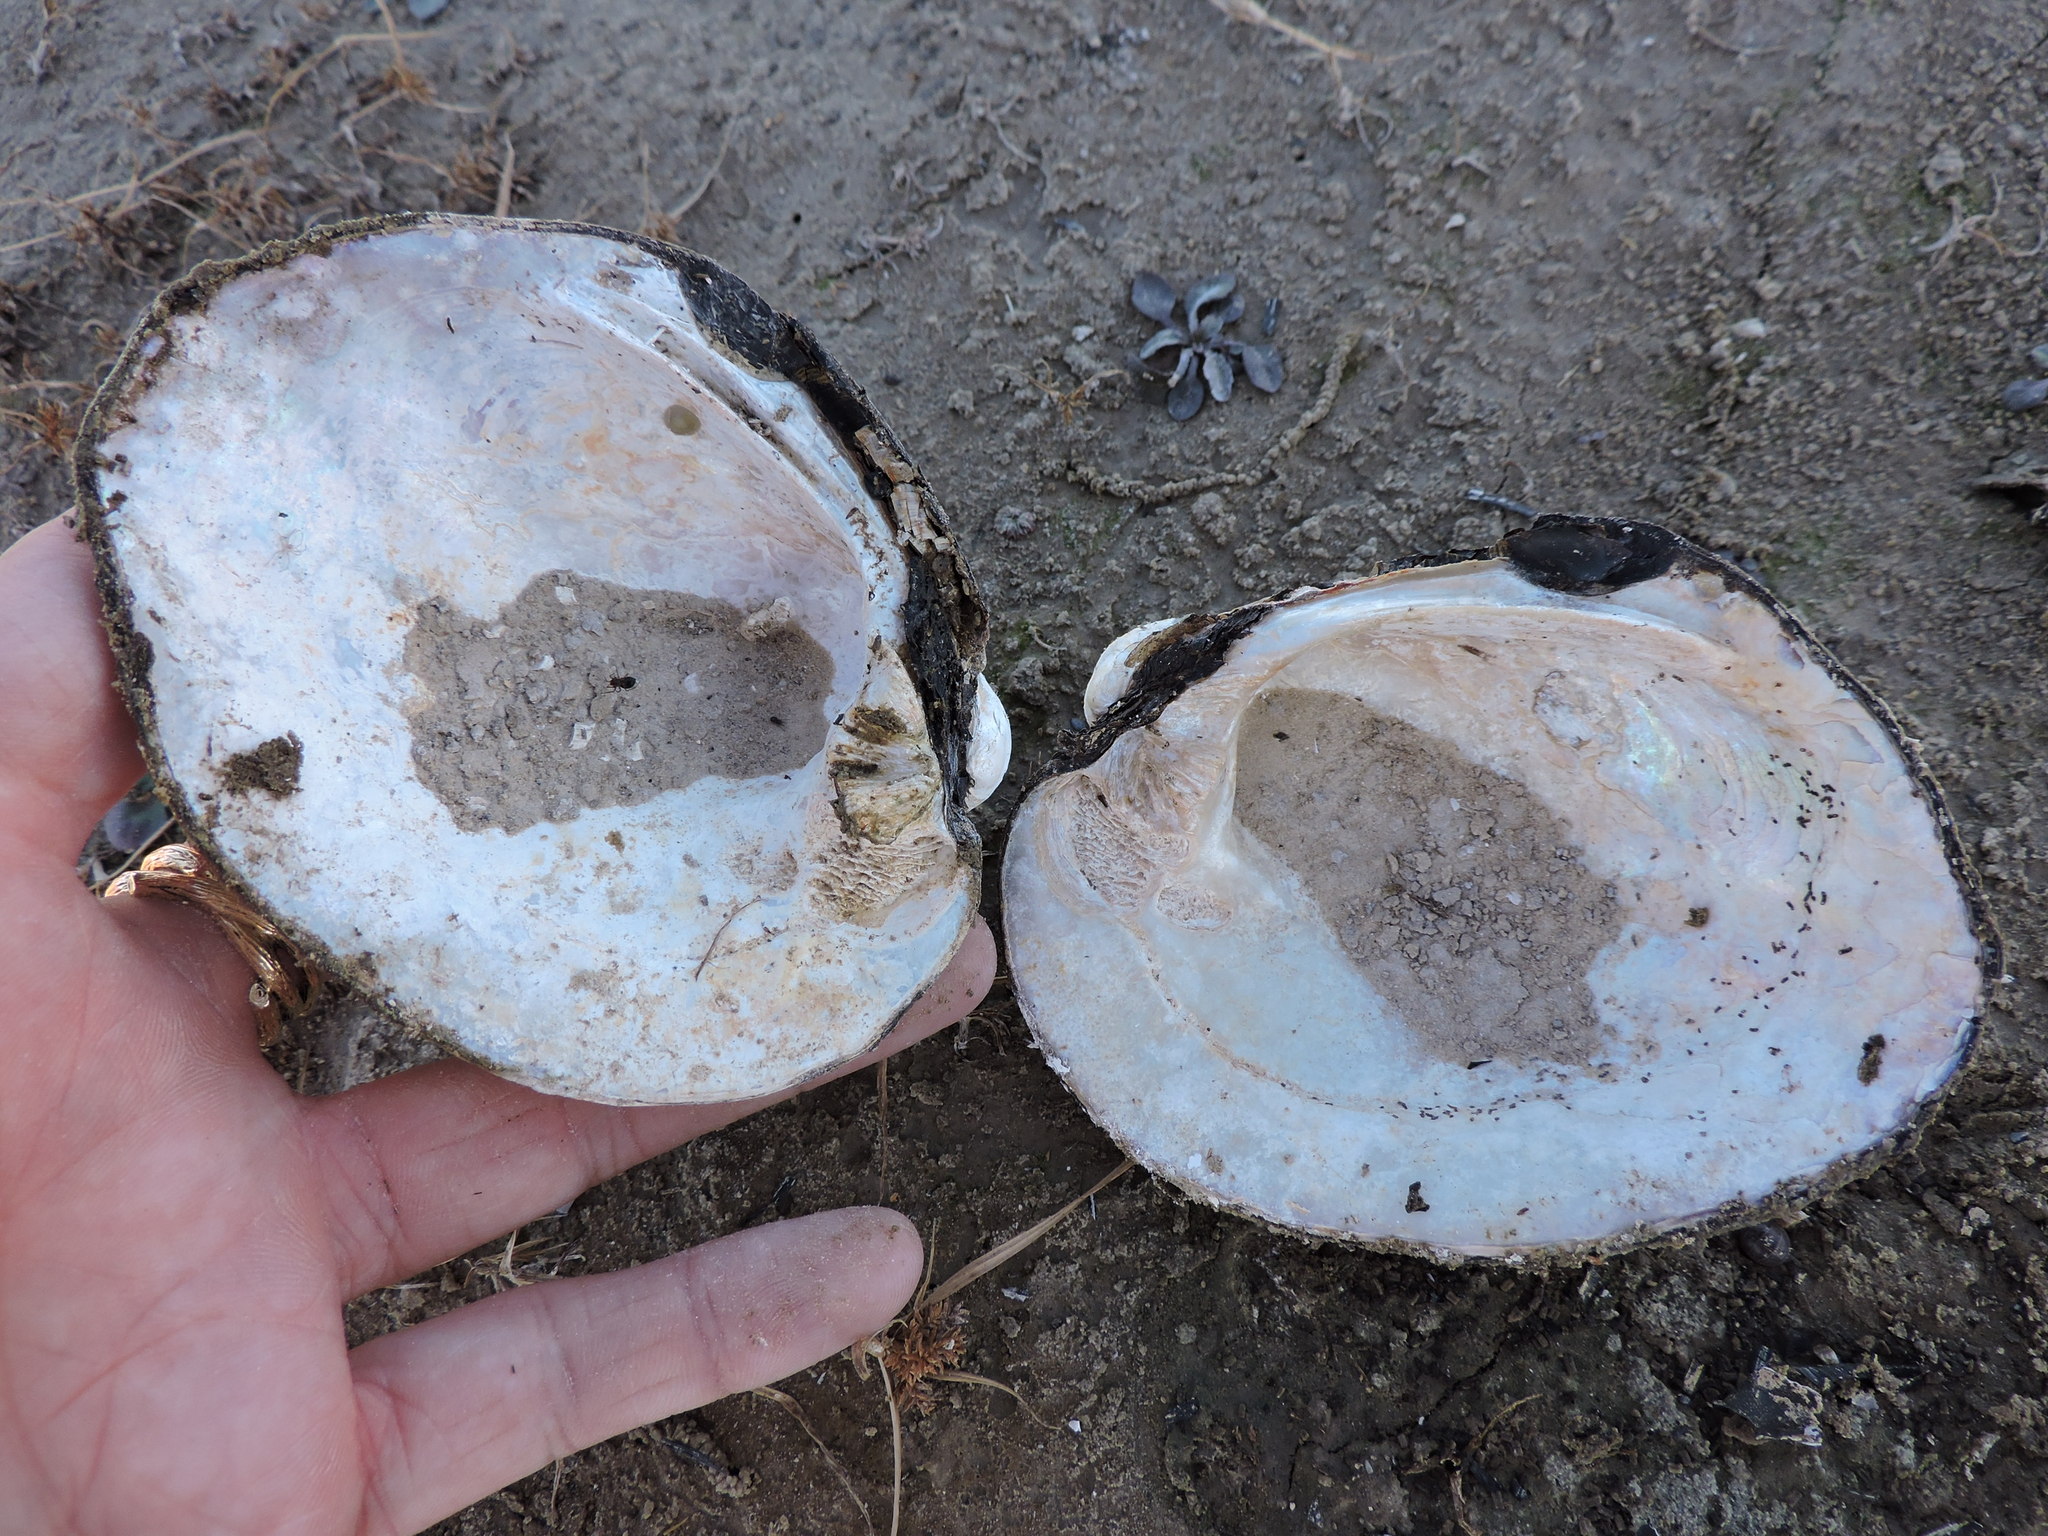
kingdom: Animalia
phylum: Mollusca
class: Bivalvia
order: Unionida
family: Unionidae
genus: Amblema
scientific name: Amblema plicata
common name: Threeridge
